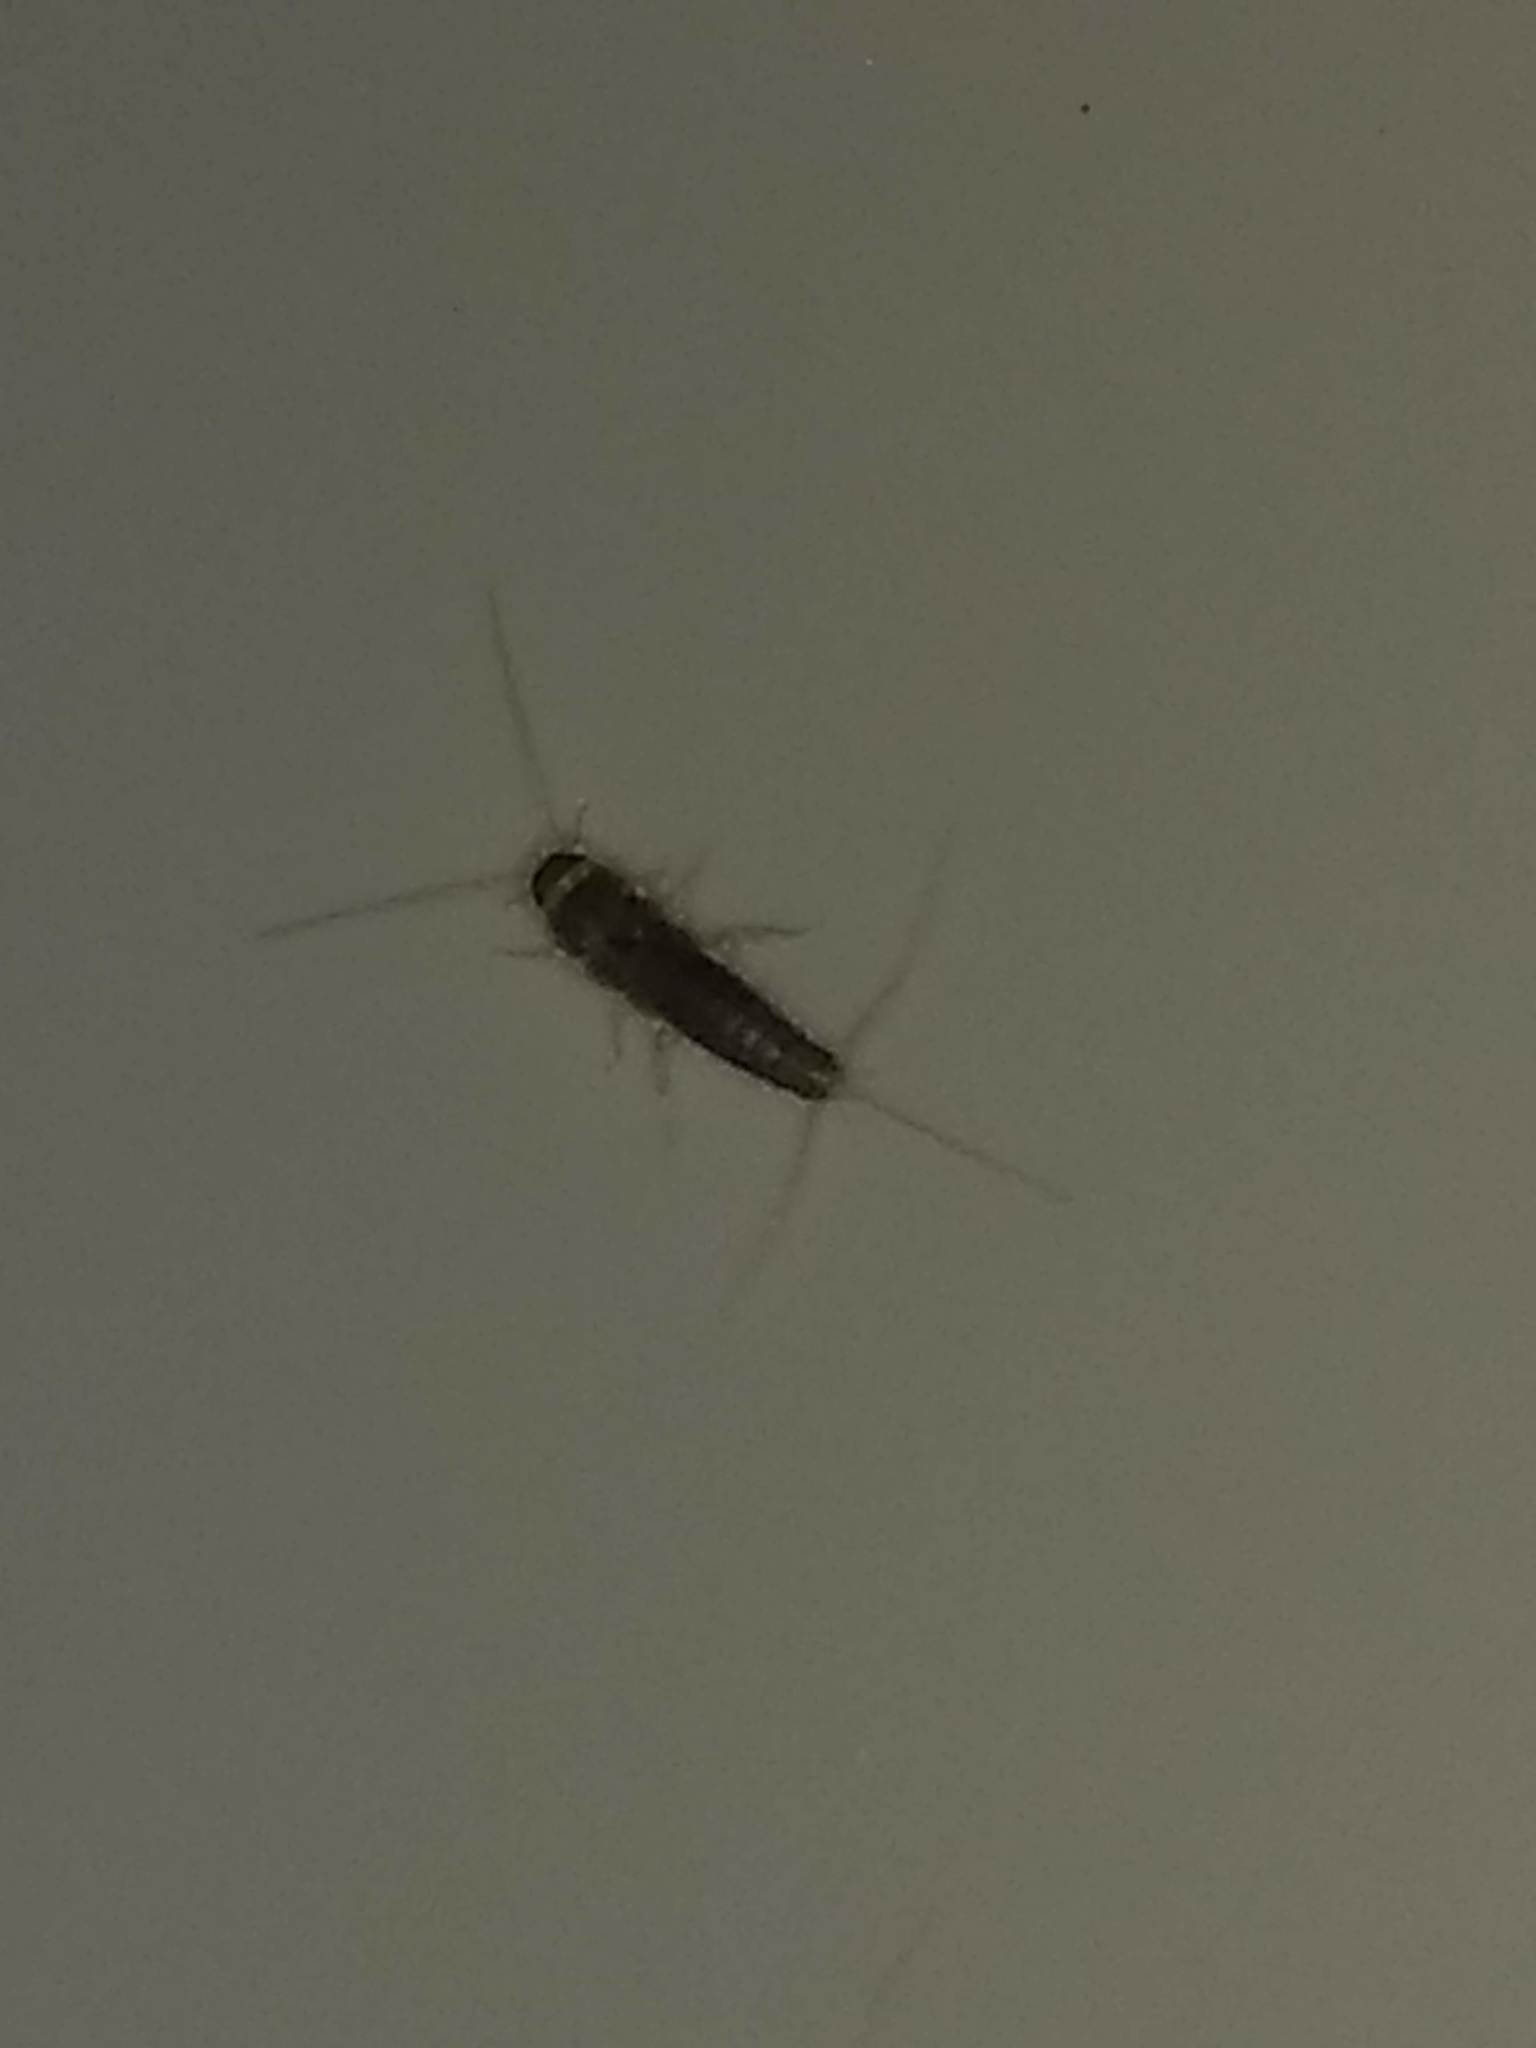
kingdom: Animalia
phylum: Arthropoda
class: Insecta
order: Zygentoma
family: Lepismatidae
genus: Ctenolepisma
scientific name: Ctenolepisma longicaudatum
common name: Silverfish
